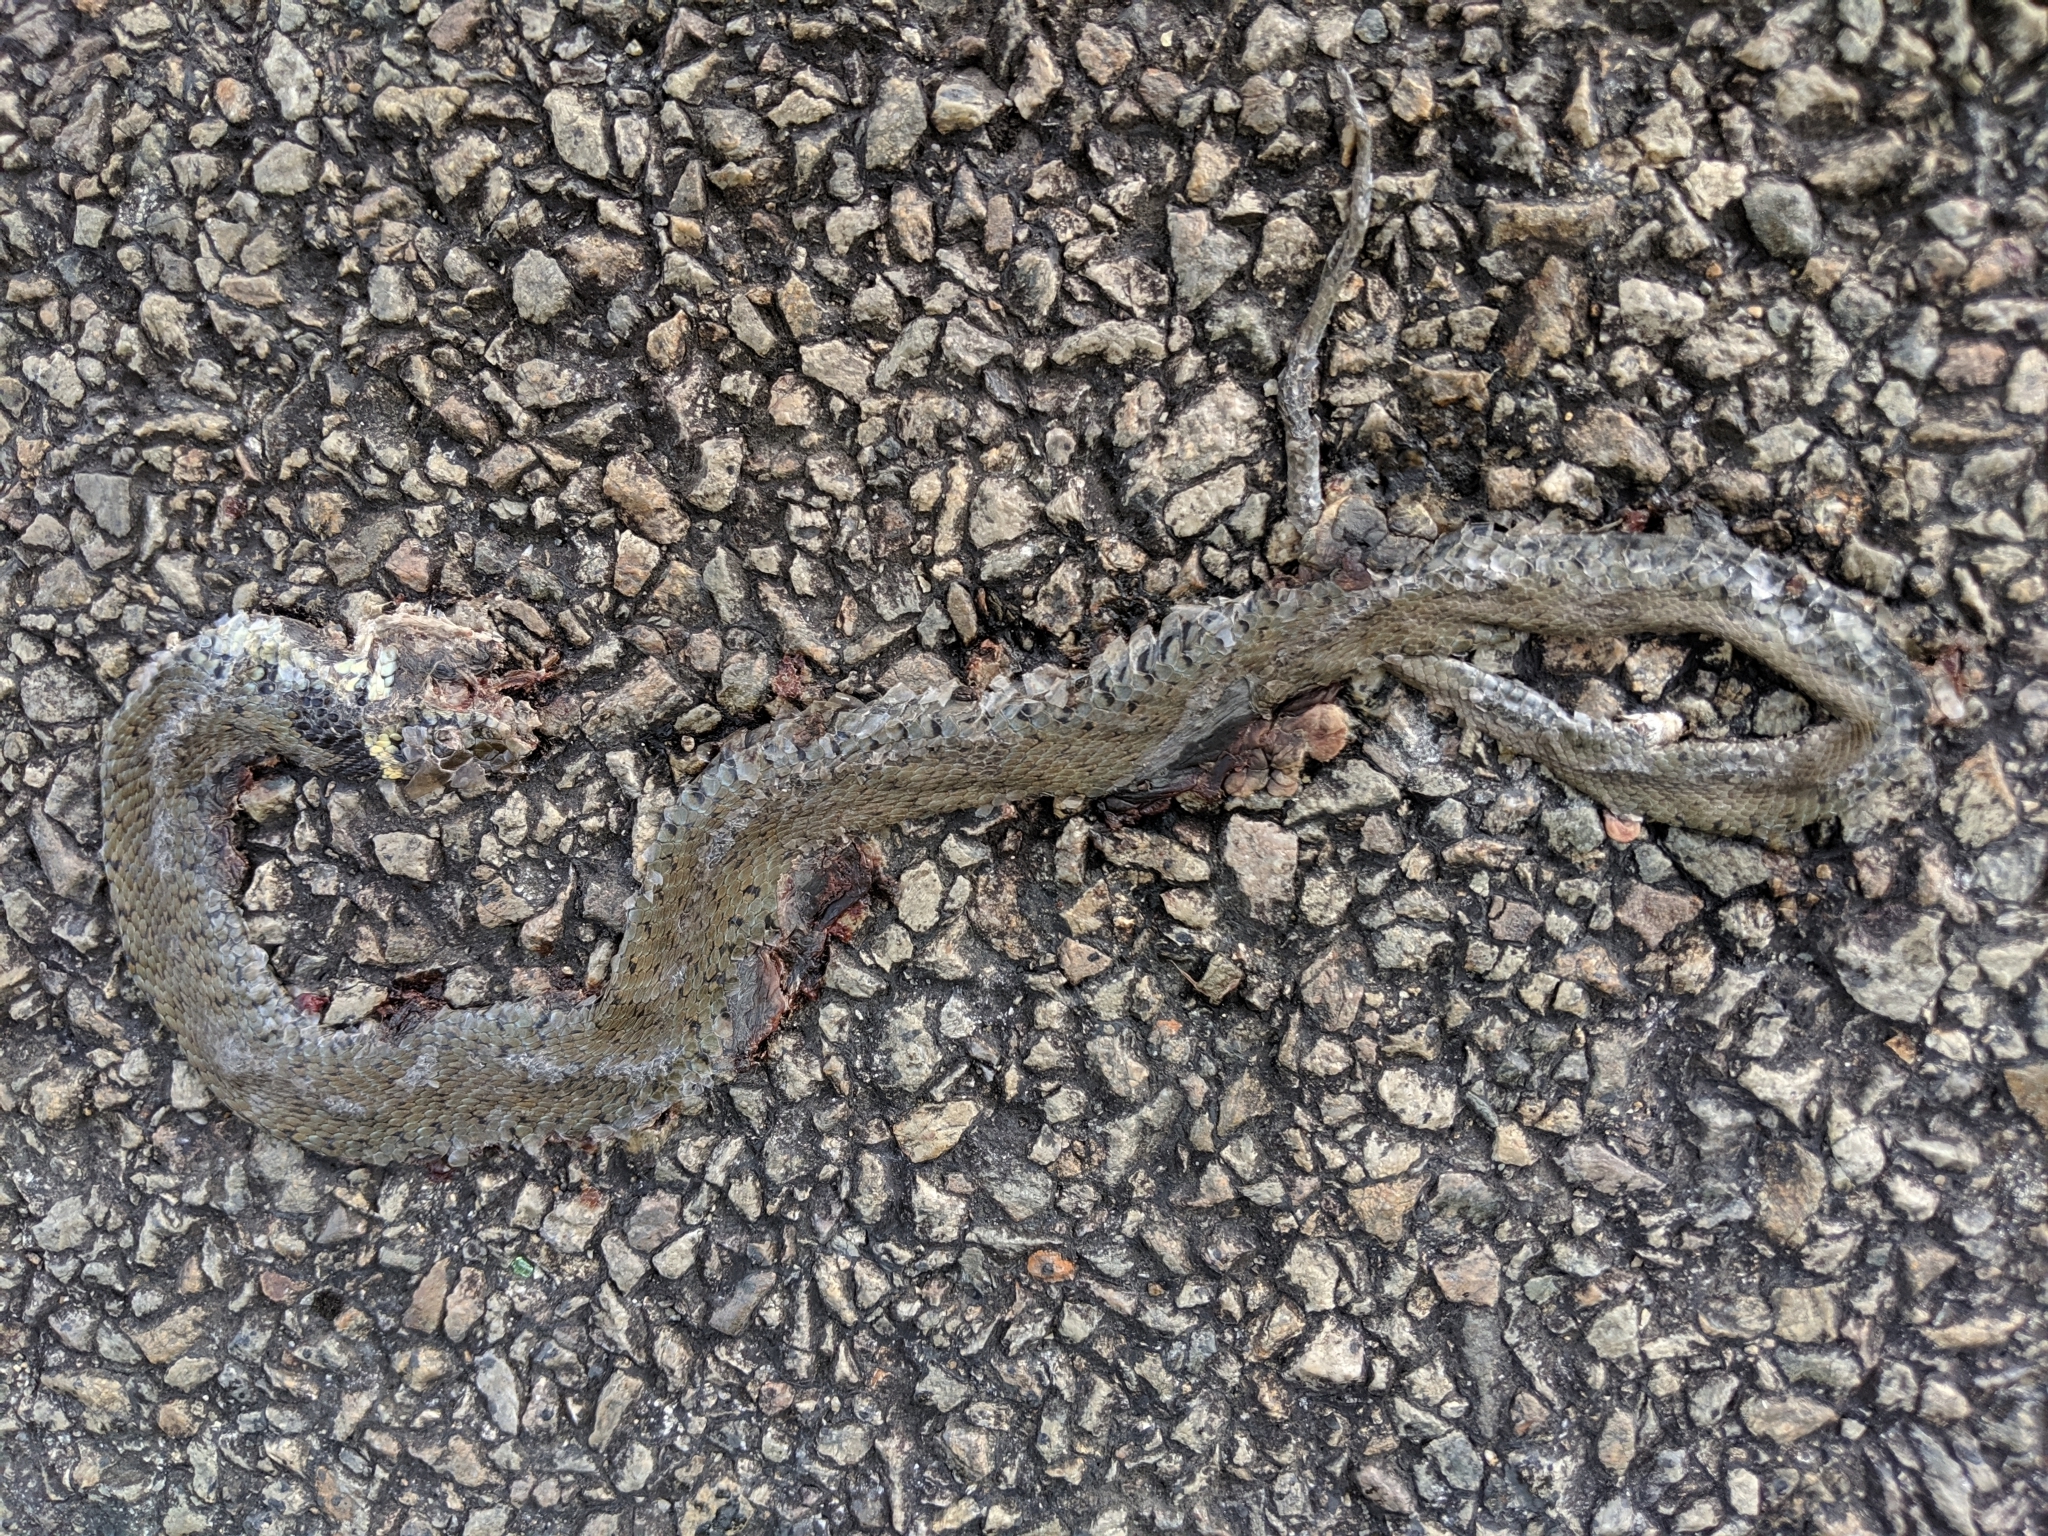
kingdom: Animalia
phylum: Chordata
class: Squamata
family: Colubridae
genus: Natrix
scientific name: Natrix helvetica
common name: Banded grass snake
